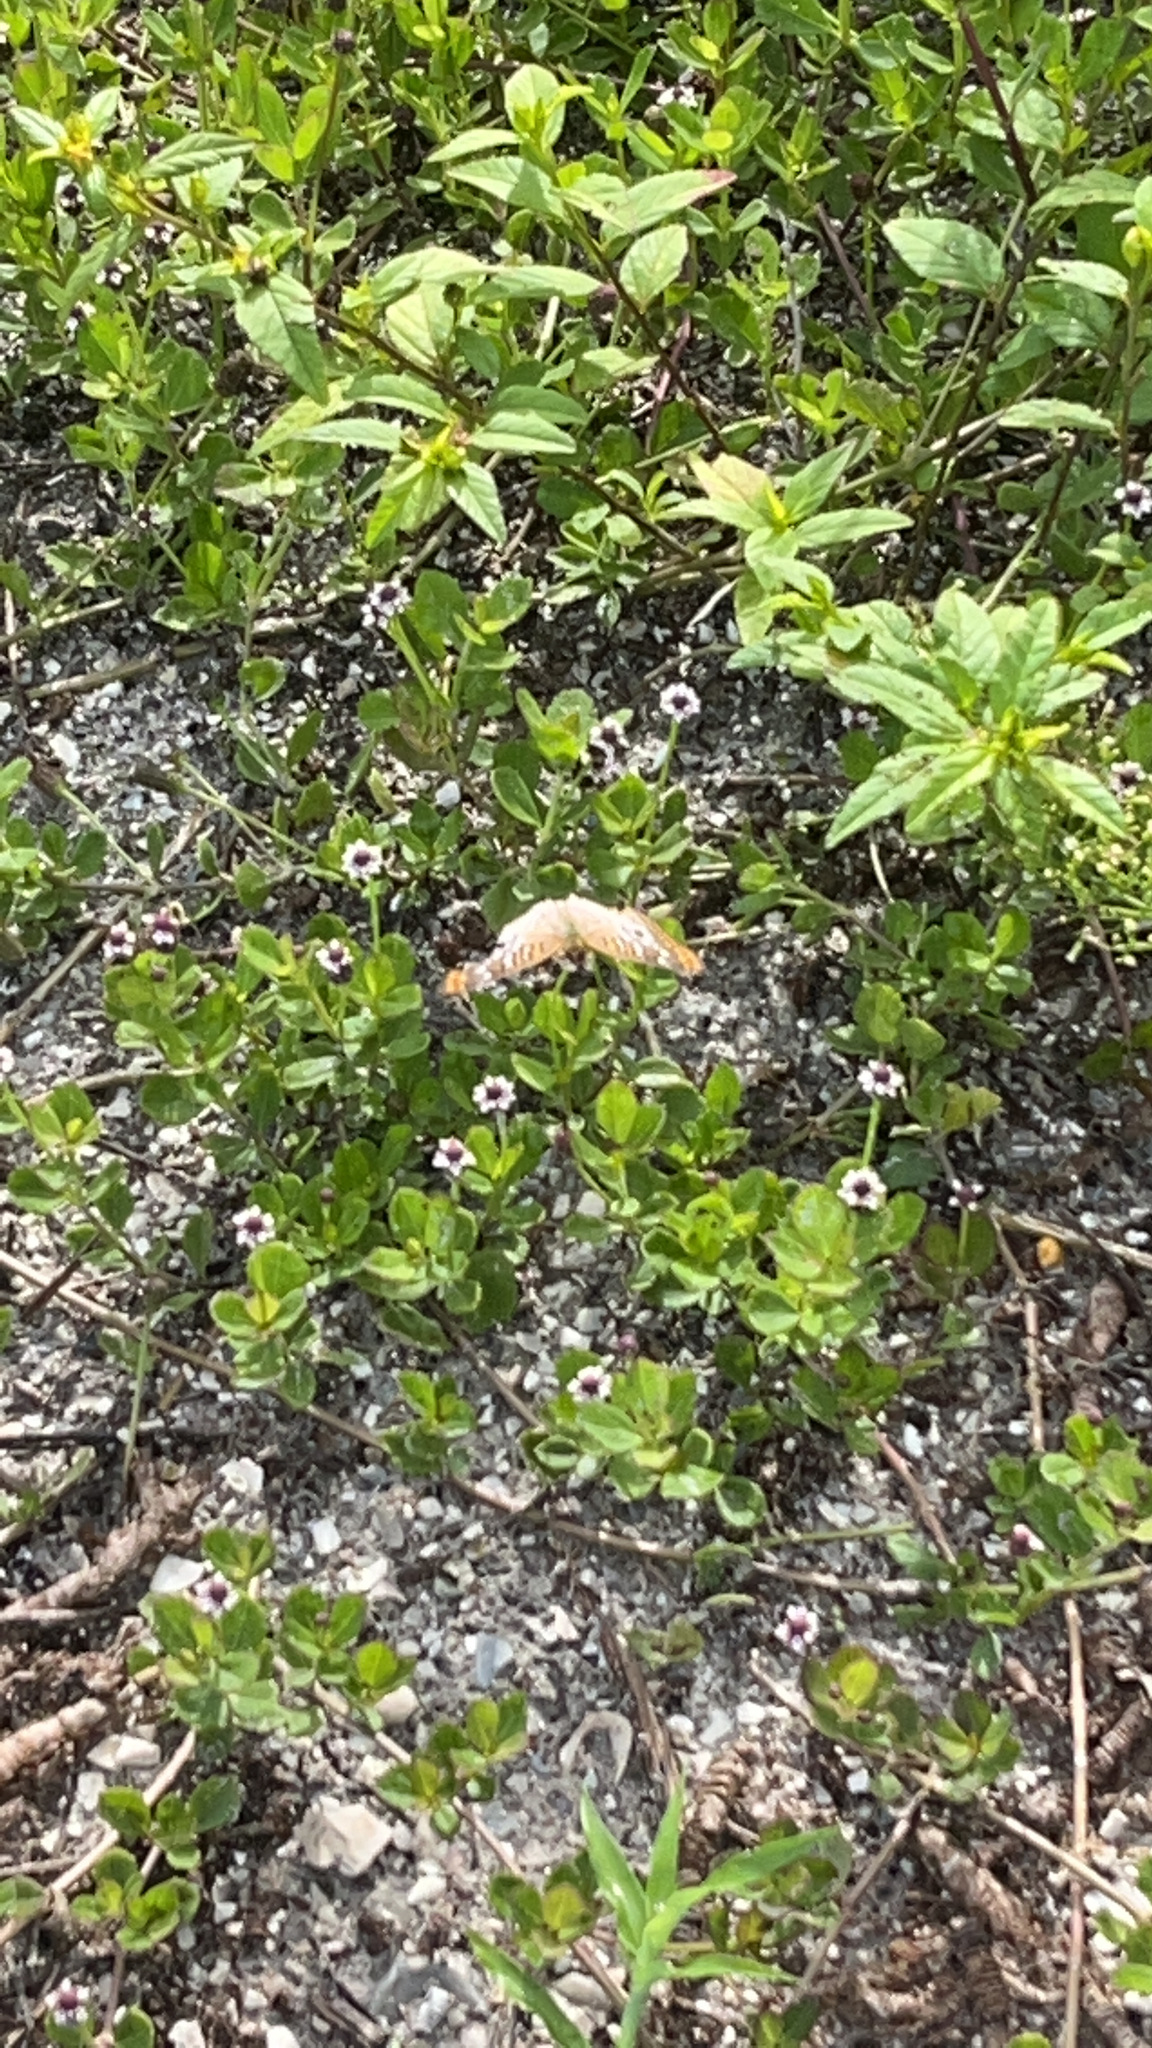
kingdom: Animalia
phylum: Arthropoda
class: Insecta
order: Lepidoptera
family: Nymphalidae
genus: Anartia
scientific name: Anartia jatrophae
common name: White peacock
